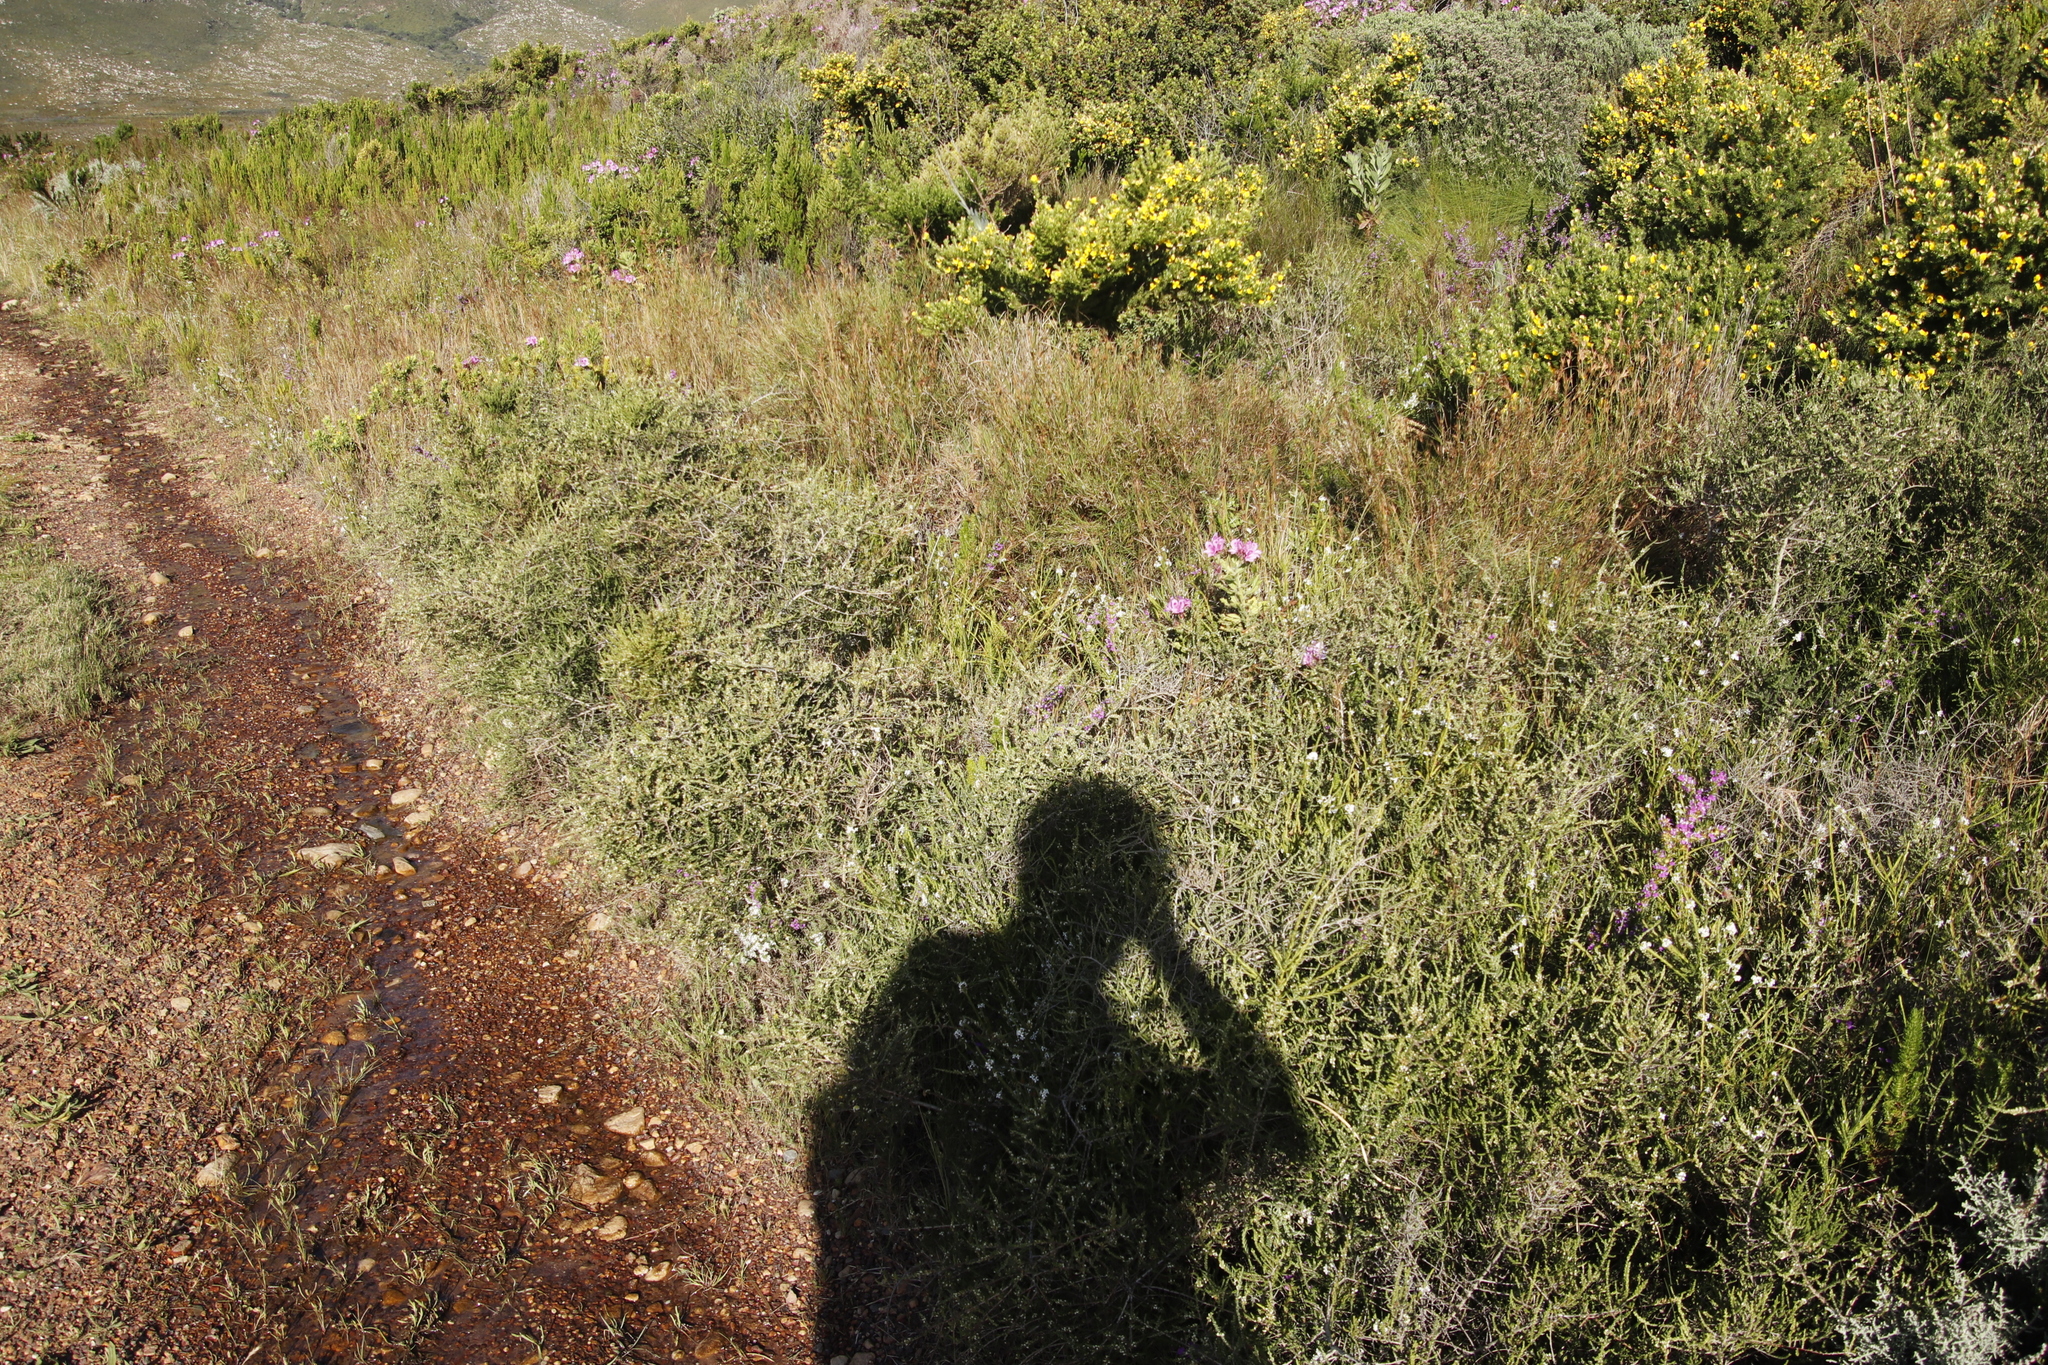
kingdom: Plantae
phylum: Tracheophyta
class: Magnoliopsida
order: Fabales
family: Fabaceae
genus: Aspalathus
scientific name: Aspalathus hispida
